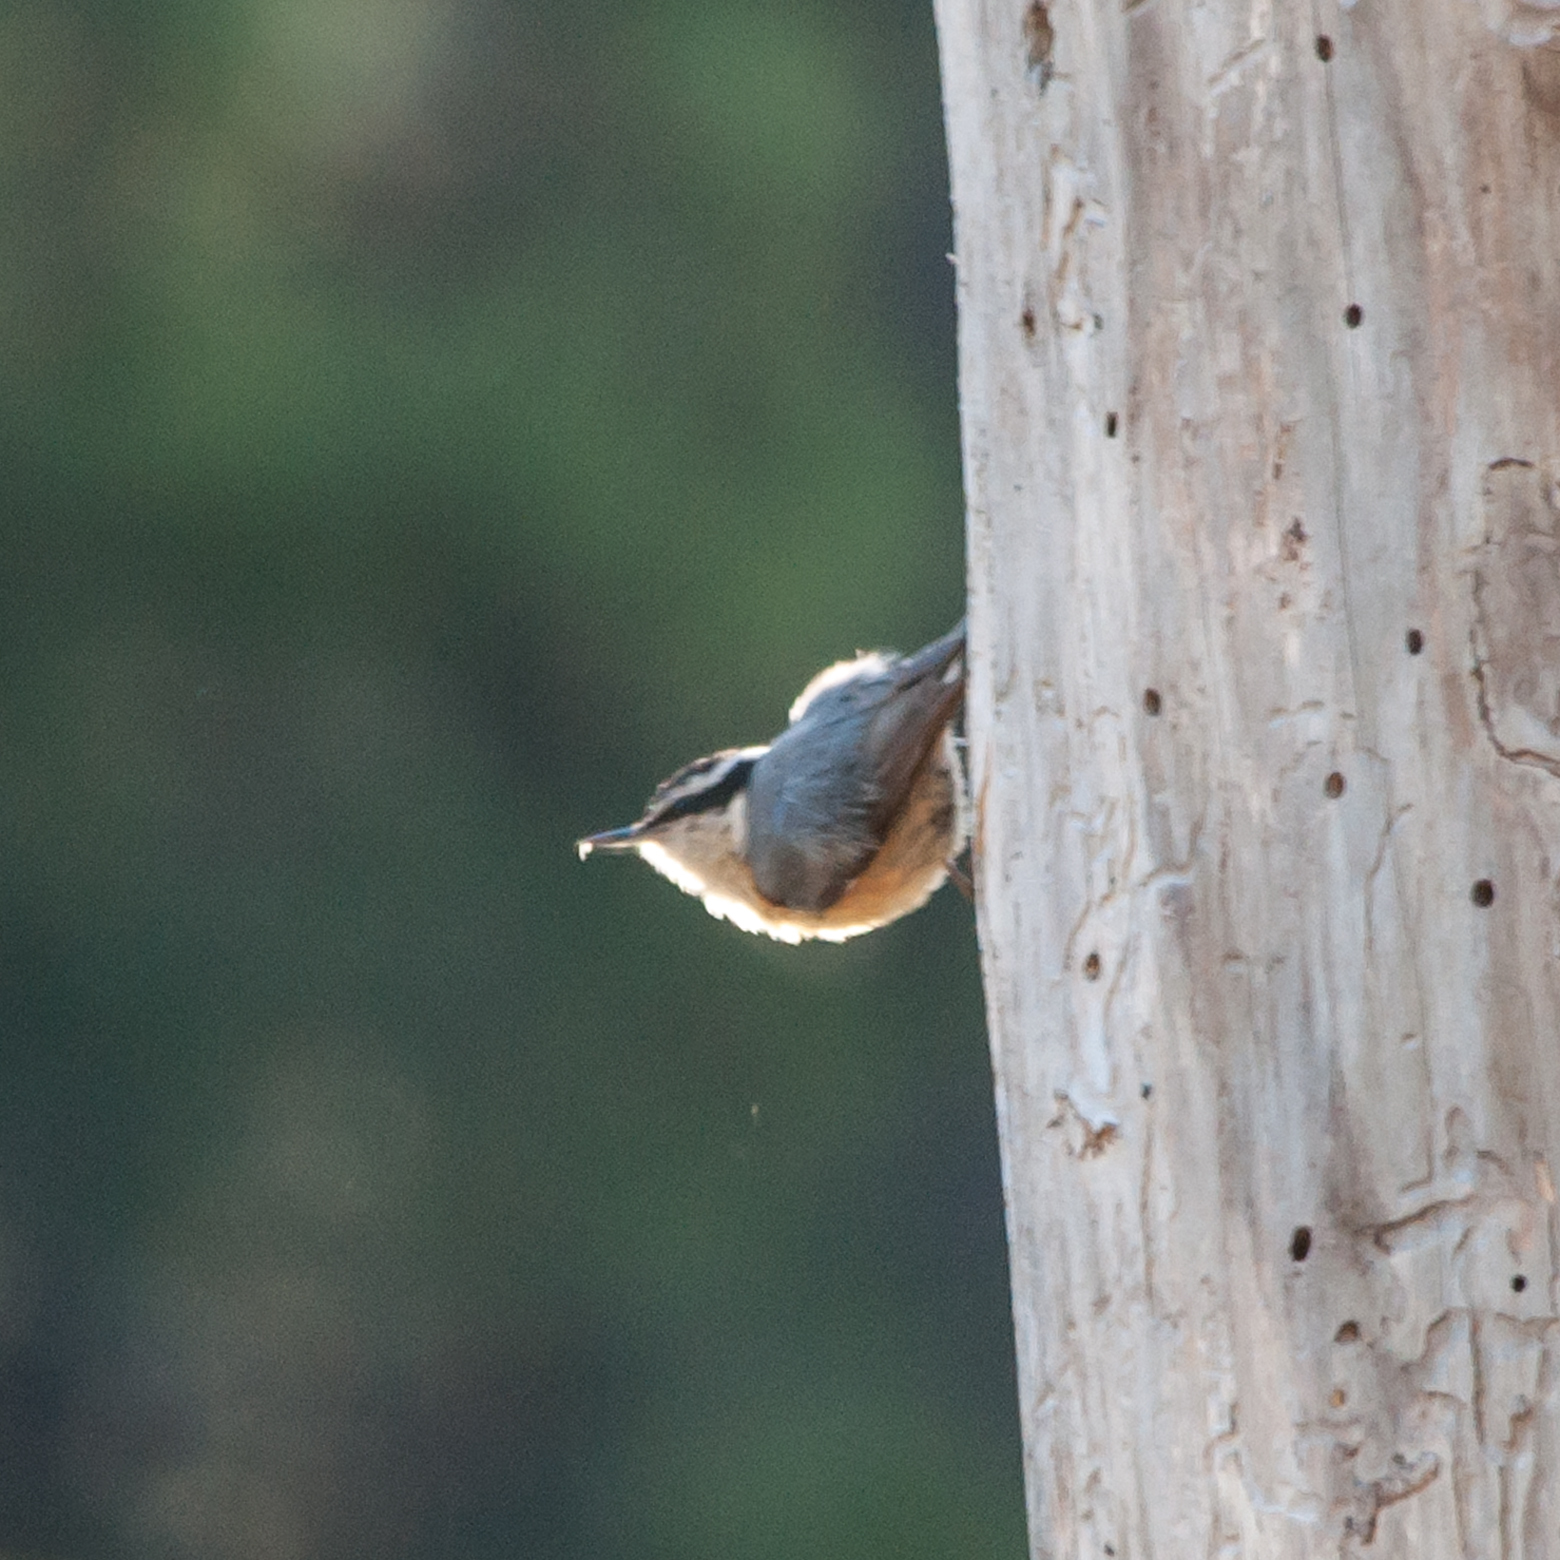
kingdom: Animalia
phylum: Chordata
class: Aves
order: Passeriformes
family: Sittidae
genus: Sitta
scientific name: Sitta canadensis
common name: Red-breasted nuthatch
